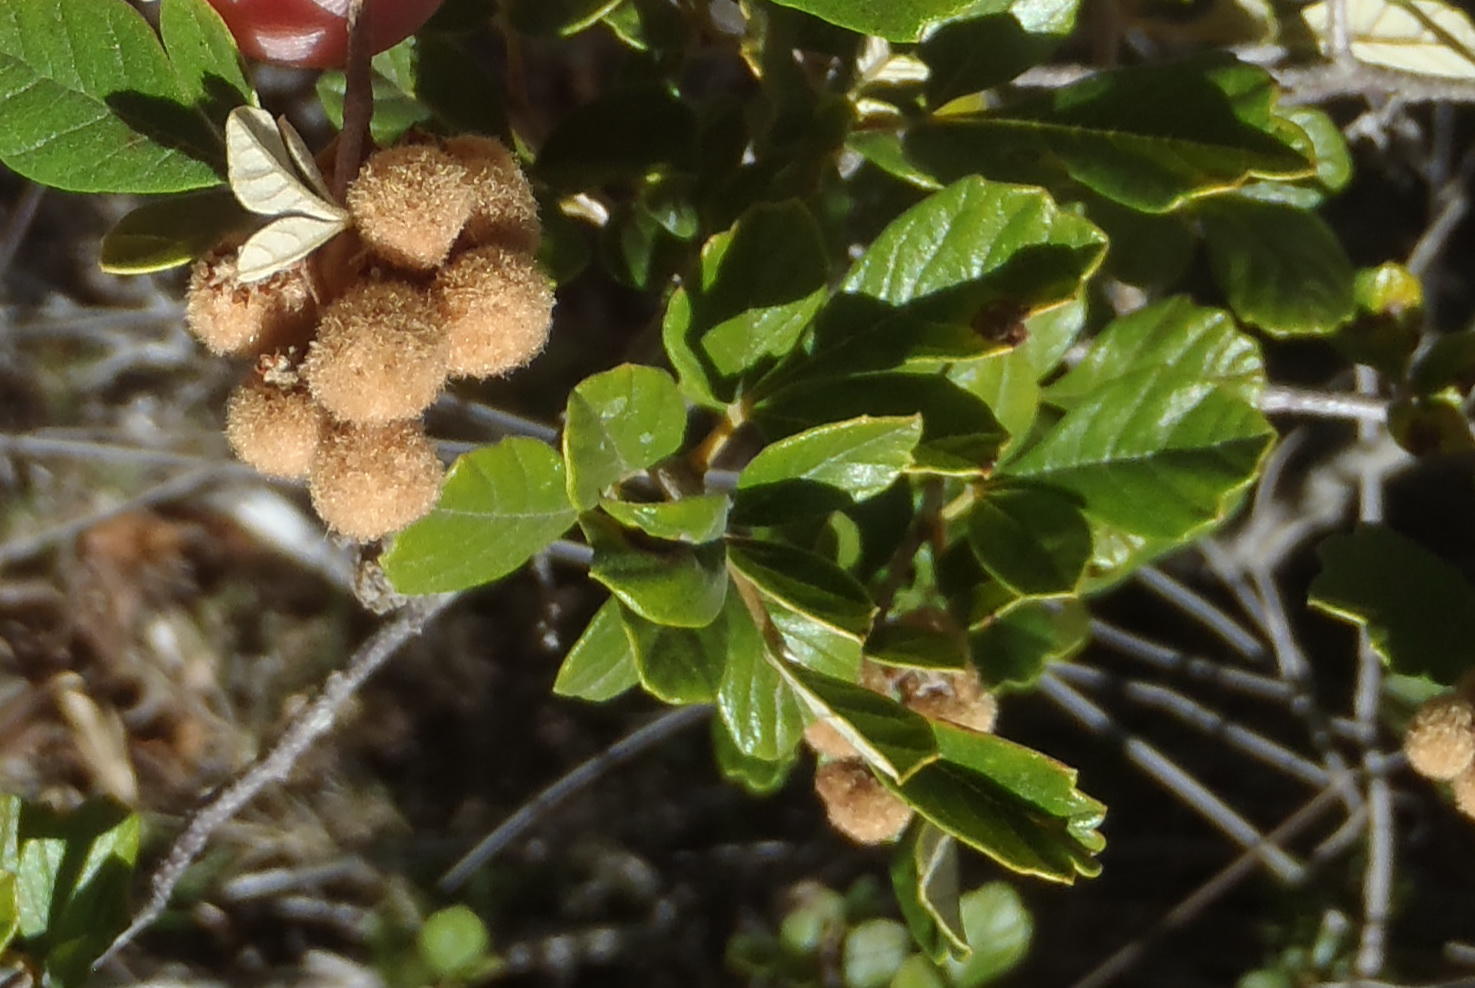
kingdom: Plantae
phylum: Tracheophyta
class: Magnoliopsida
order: Sapindales
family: Anacardiaceae
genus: Searsia
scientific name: Searsia incisa
